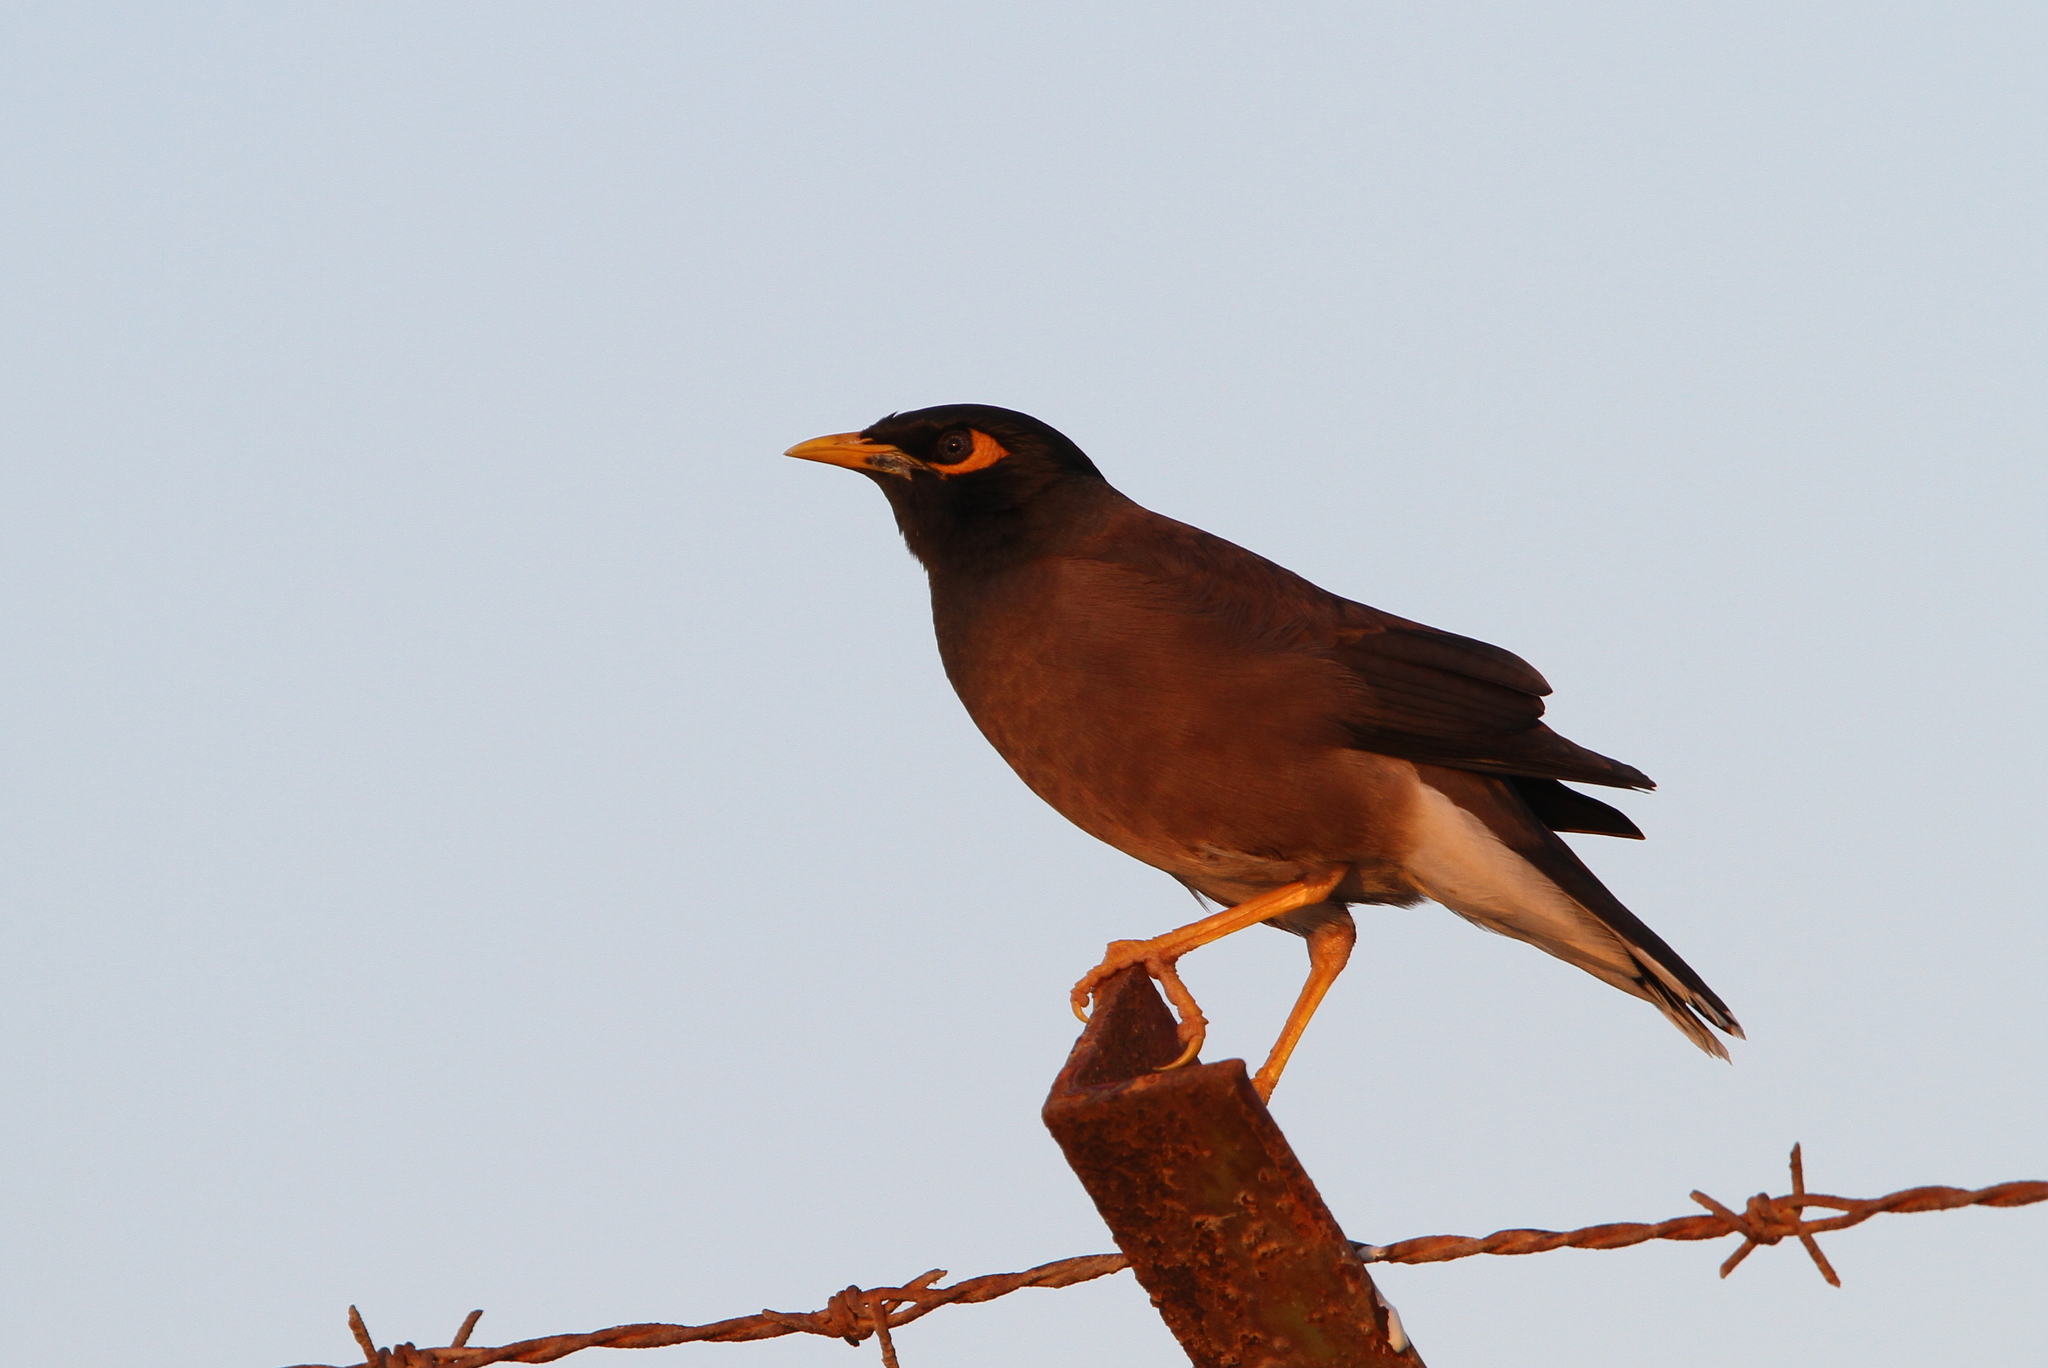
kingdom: Animalia
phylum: Chordata
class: Aves
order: Passeriformes
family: Sturnidae
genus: Acridotheres
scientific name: Acridotheres tristis
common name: Common myna
